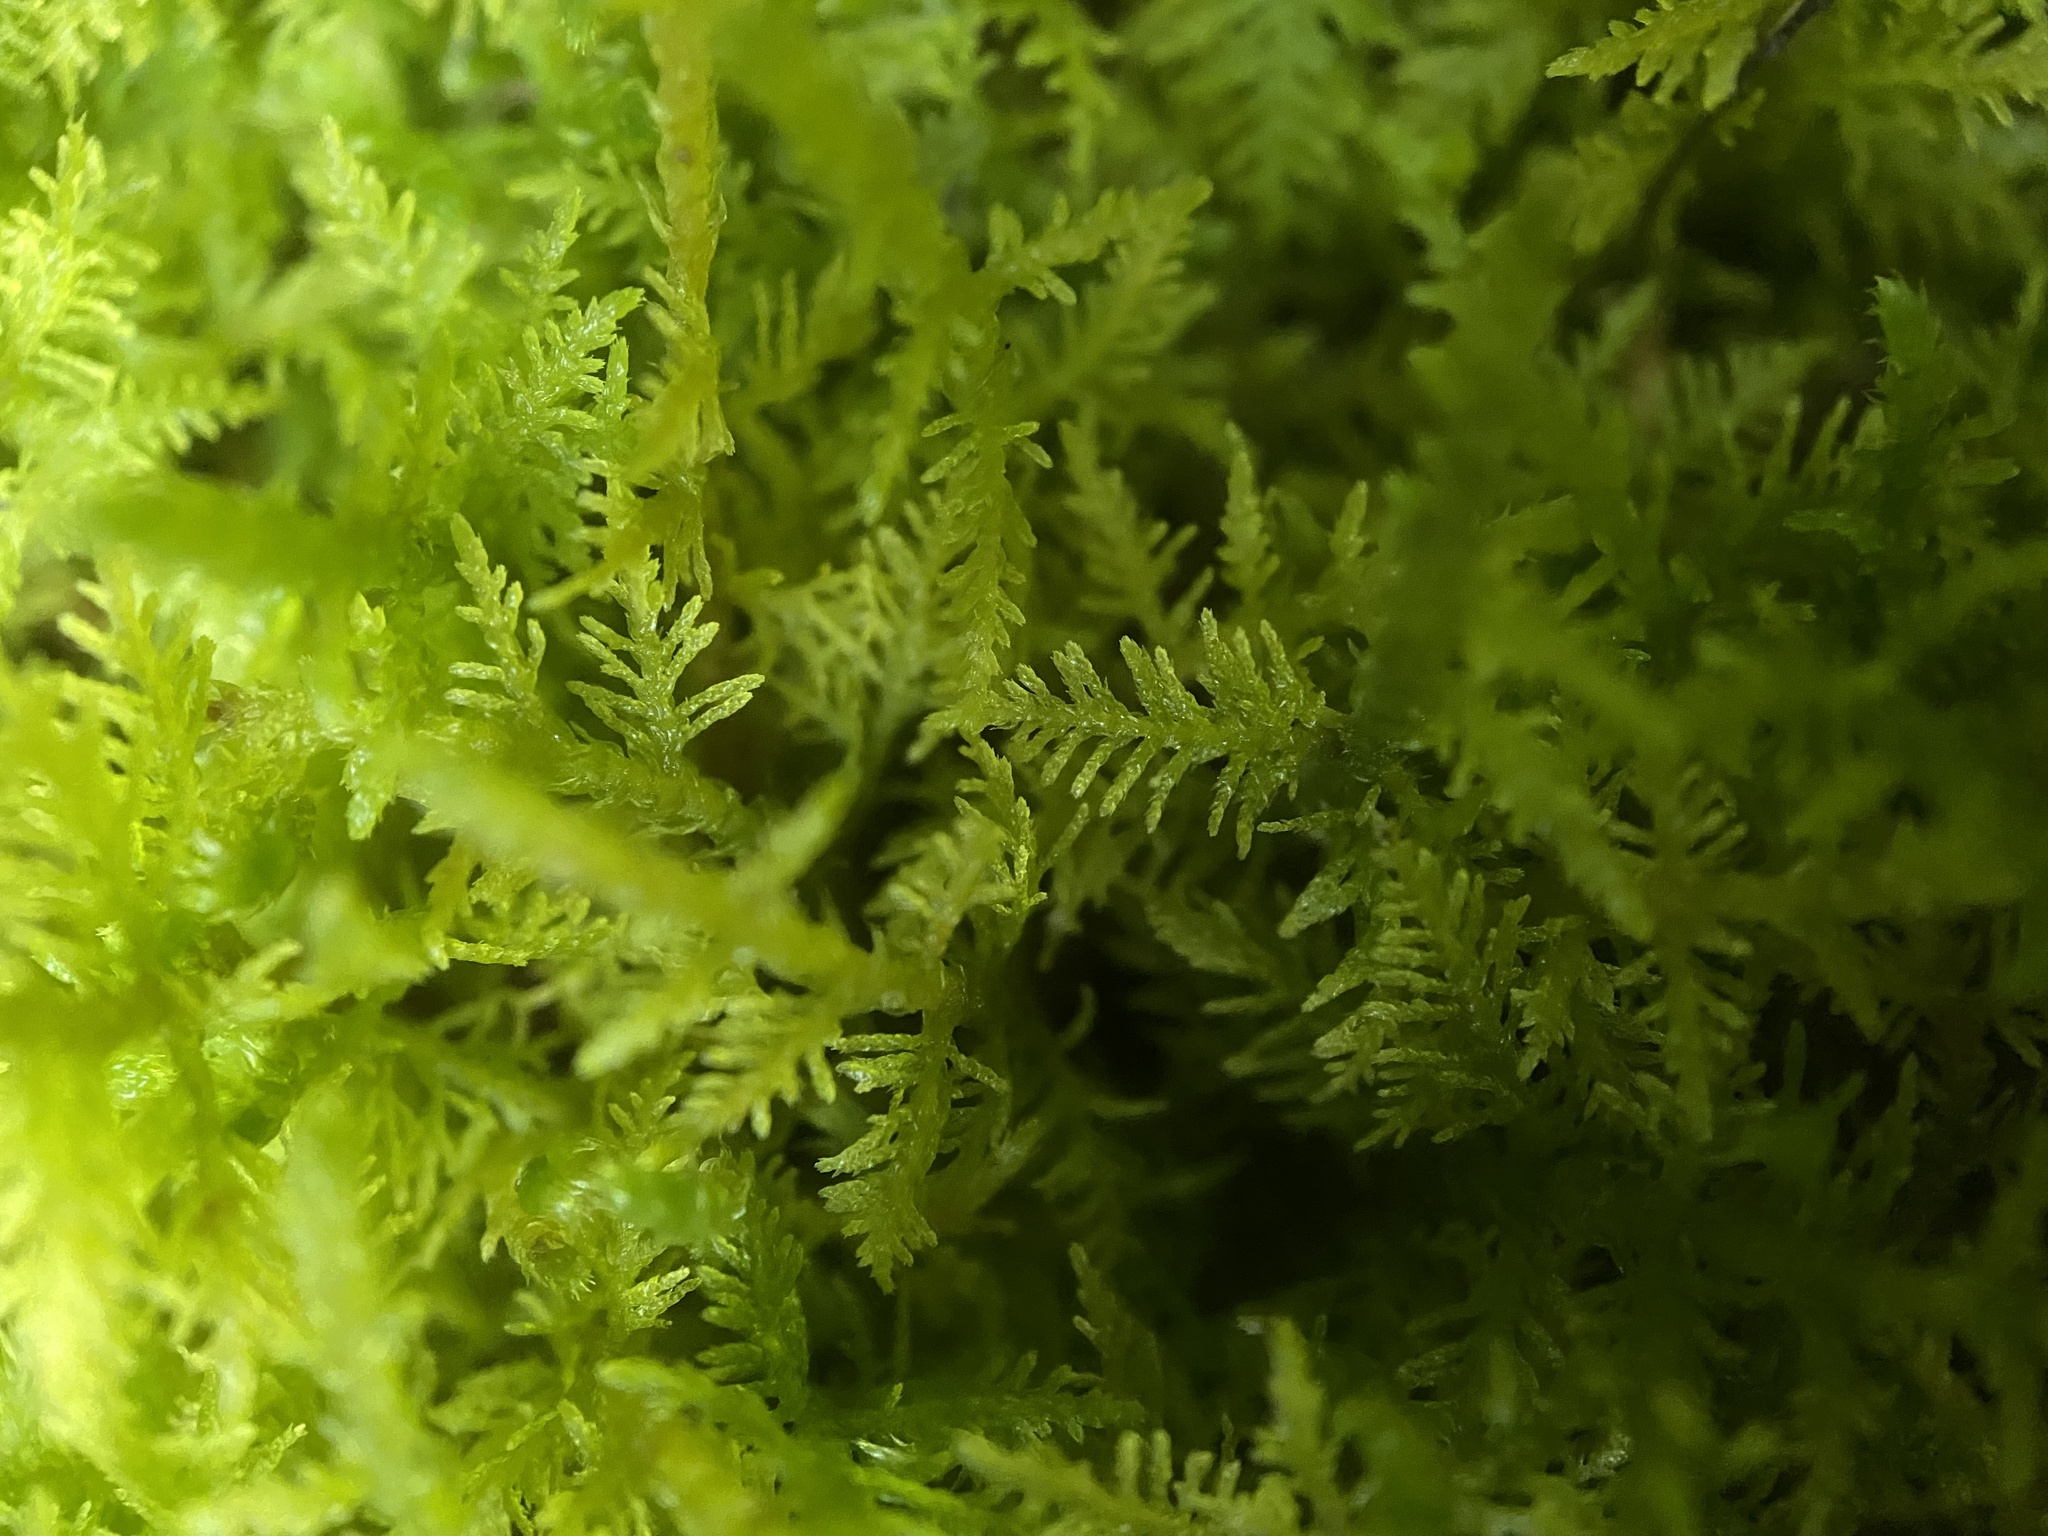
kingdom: Plantae
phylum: Bryophyta
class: Bryopsida
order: Hypnales
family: Thuidiaceae
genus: Thuidium
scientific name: Thuidium delicatulum
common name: Delicate fern moss
